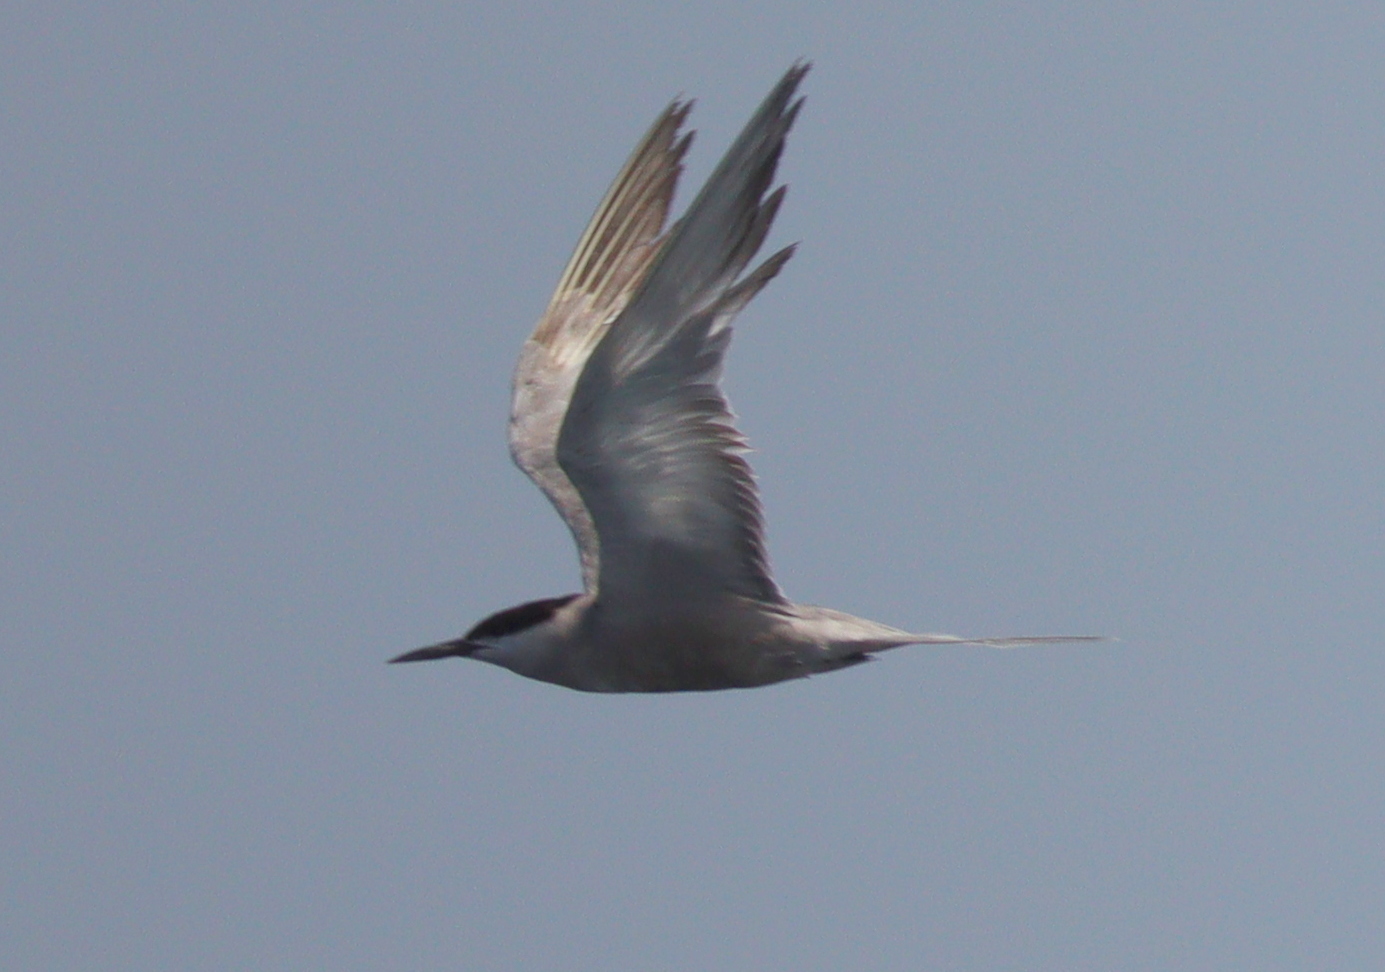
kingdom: Animalia
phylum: Chordata
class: Aves
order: Charadriiformes
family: Laridae
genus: Sterna
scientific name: Sterna repressa
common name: White-cheeked tern
